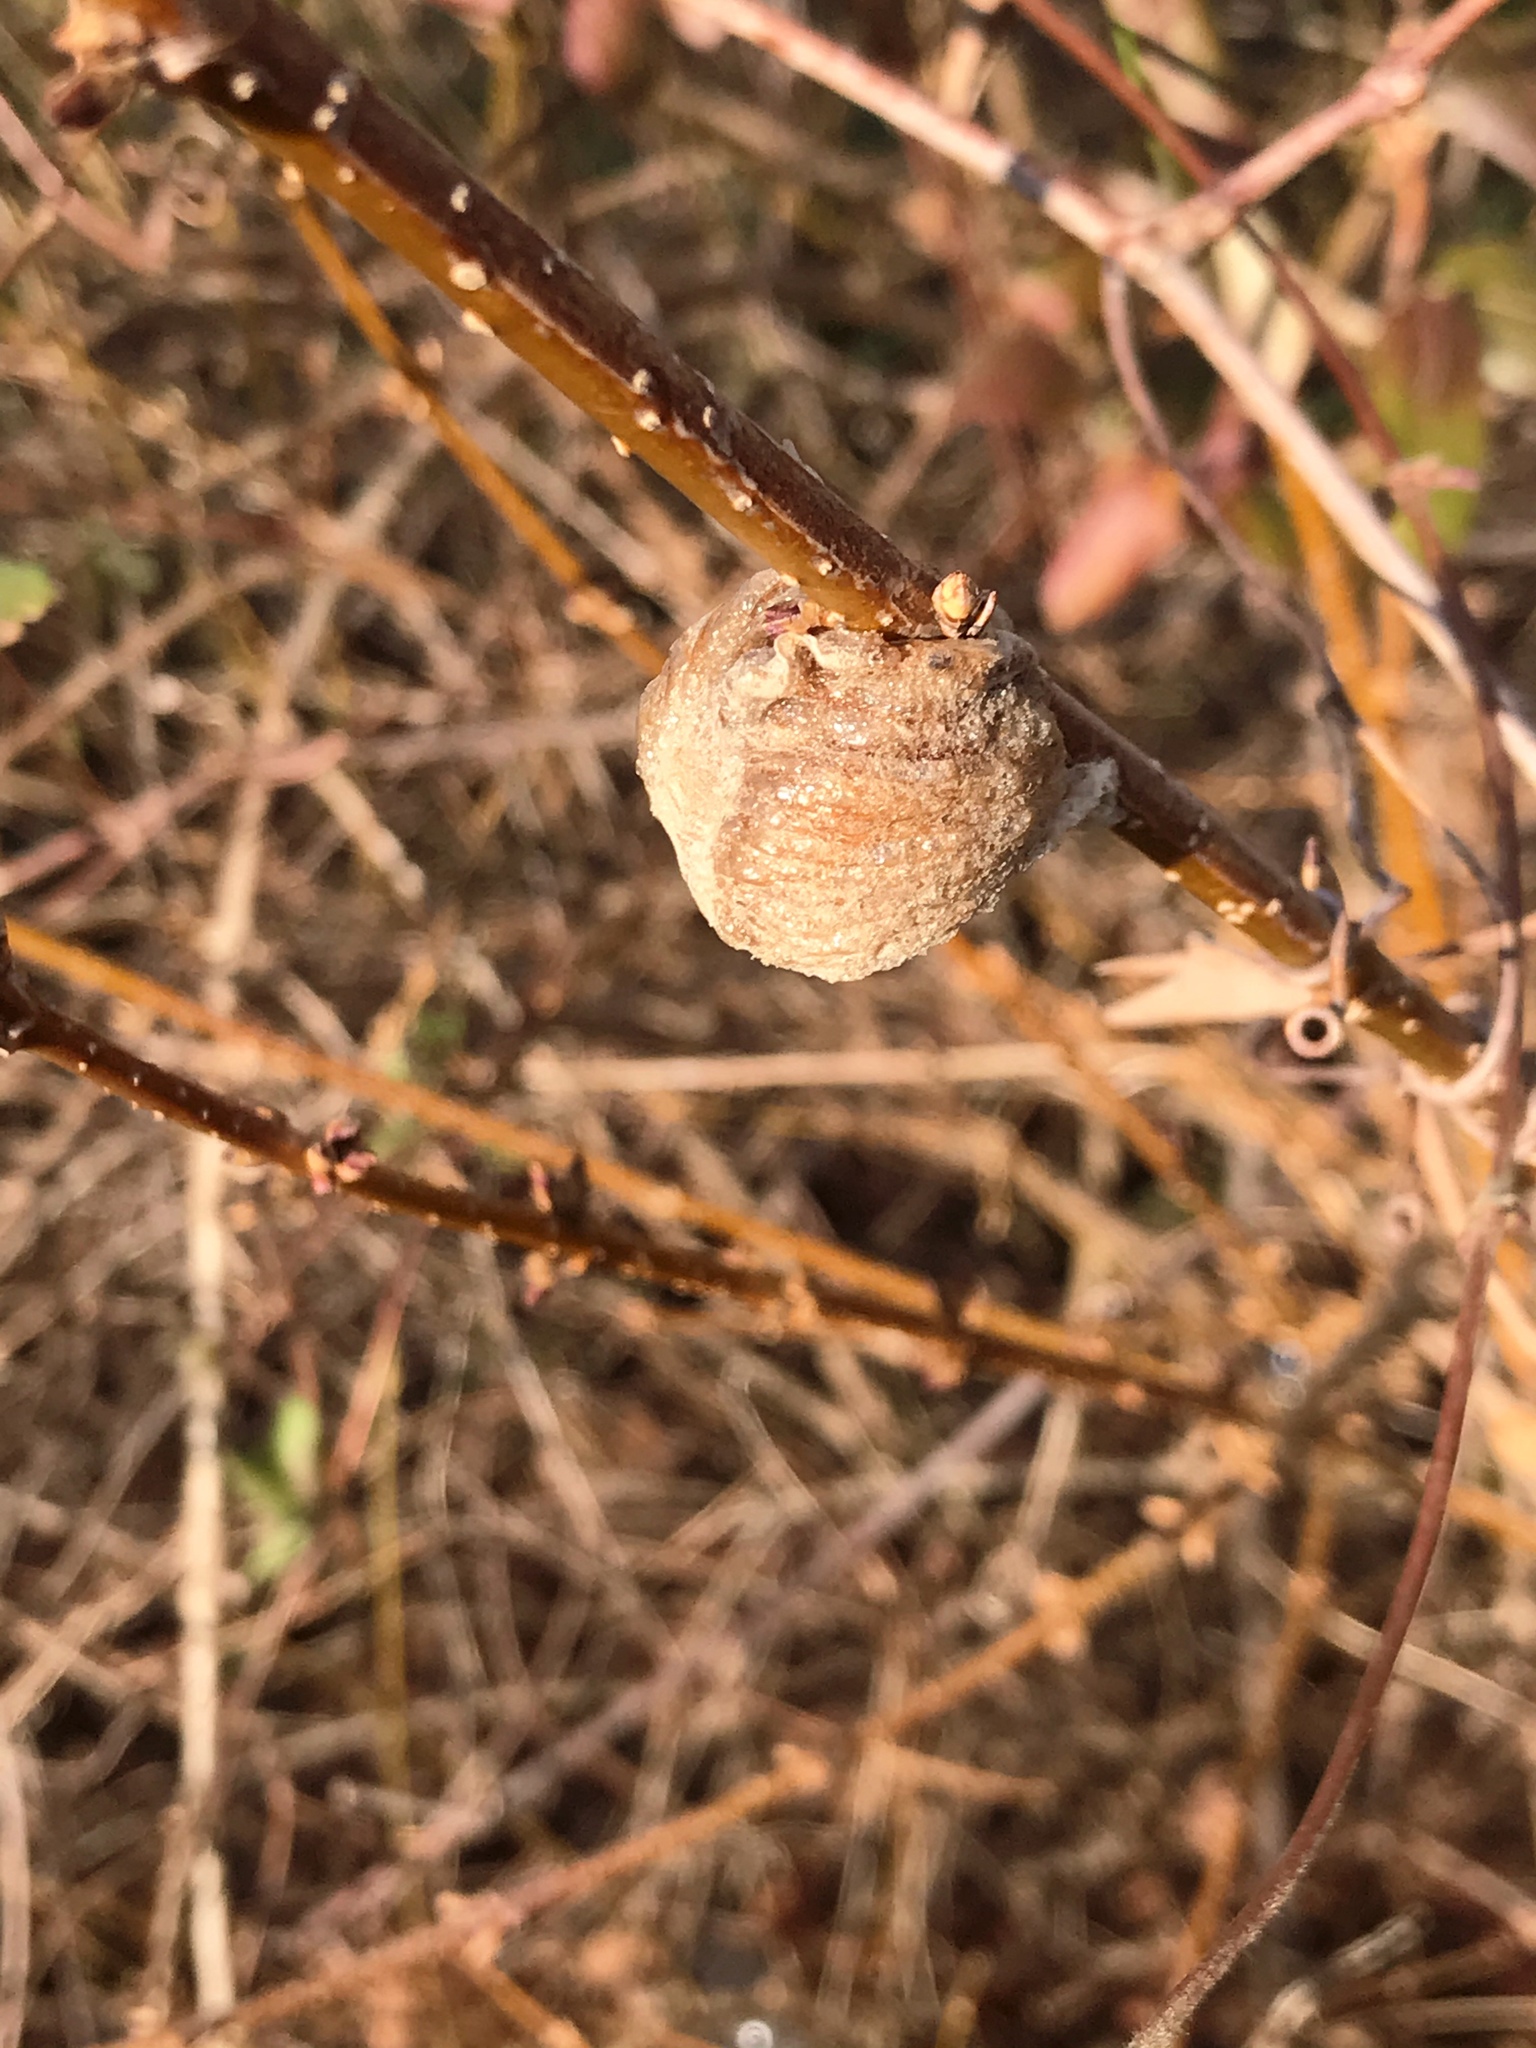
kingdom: Animalia
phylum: Arthropoda
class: Insecta
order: Mantodea
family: Mantidae
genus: Tenodera
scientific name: Tenodera sinensis
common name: Chinese mantis
